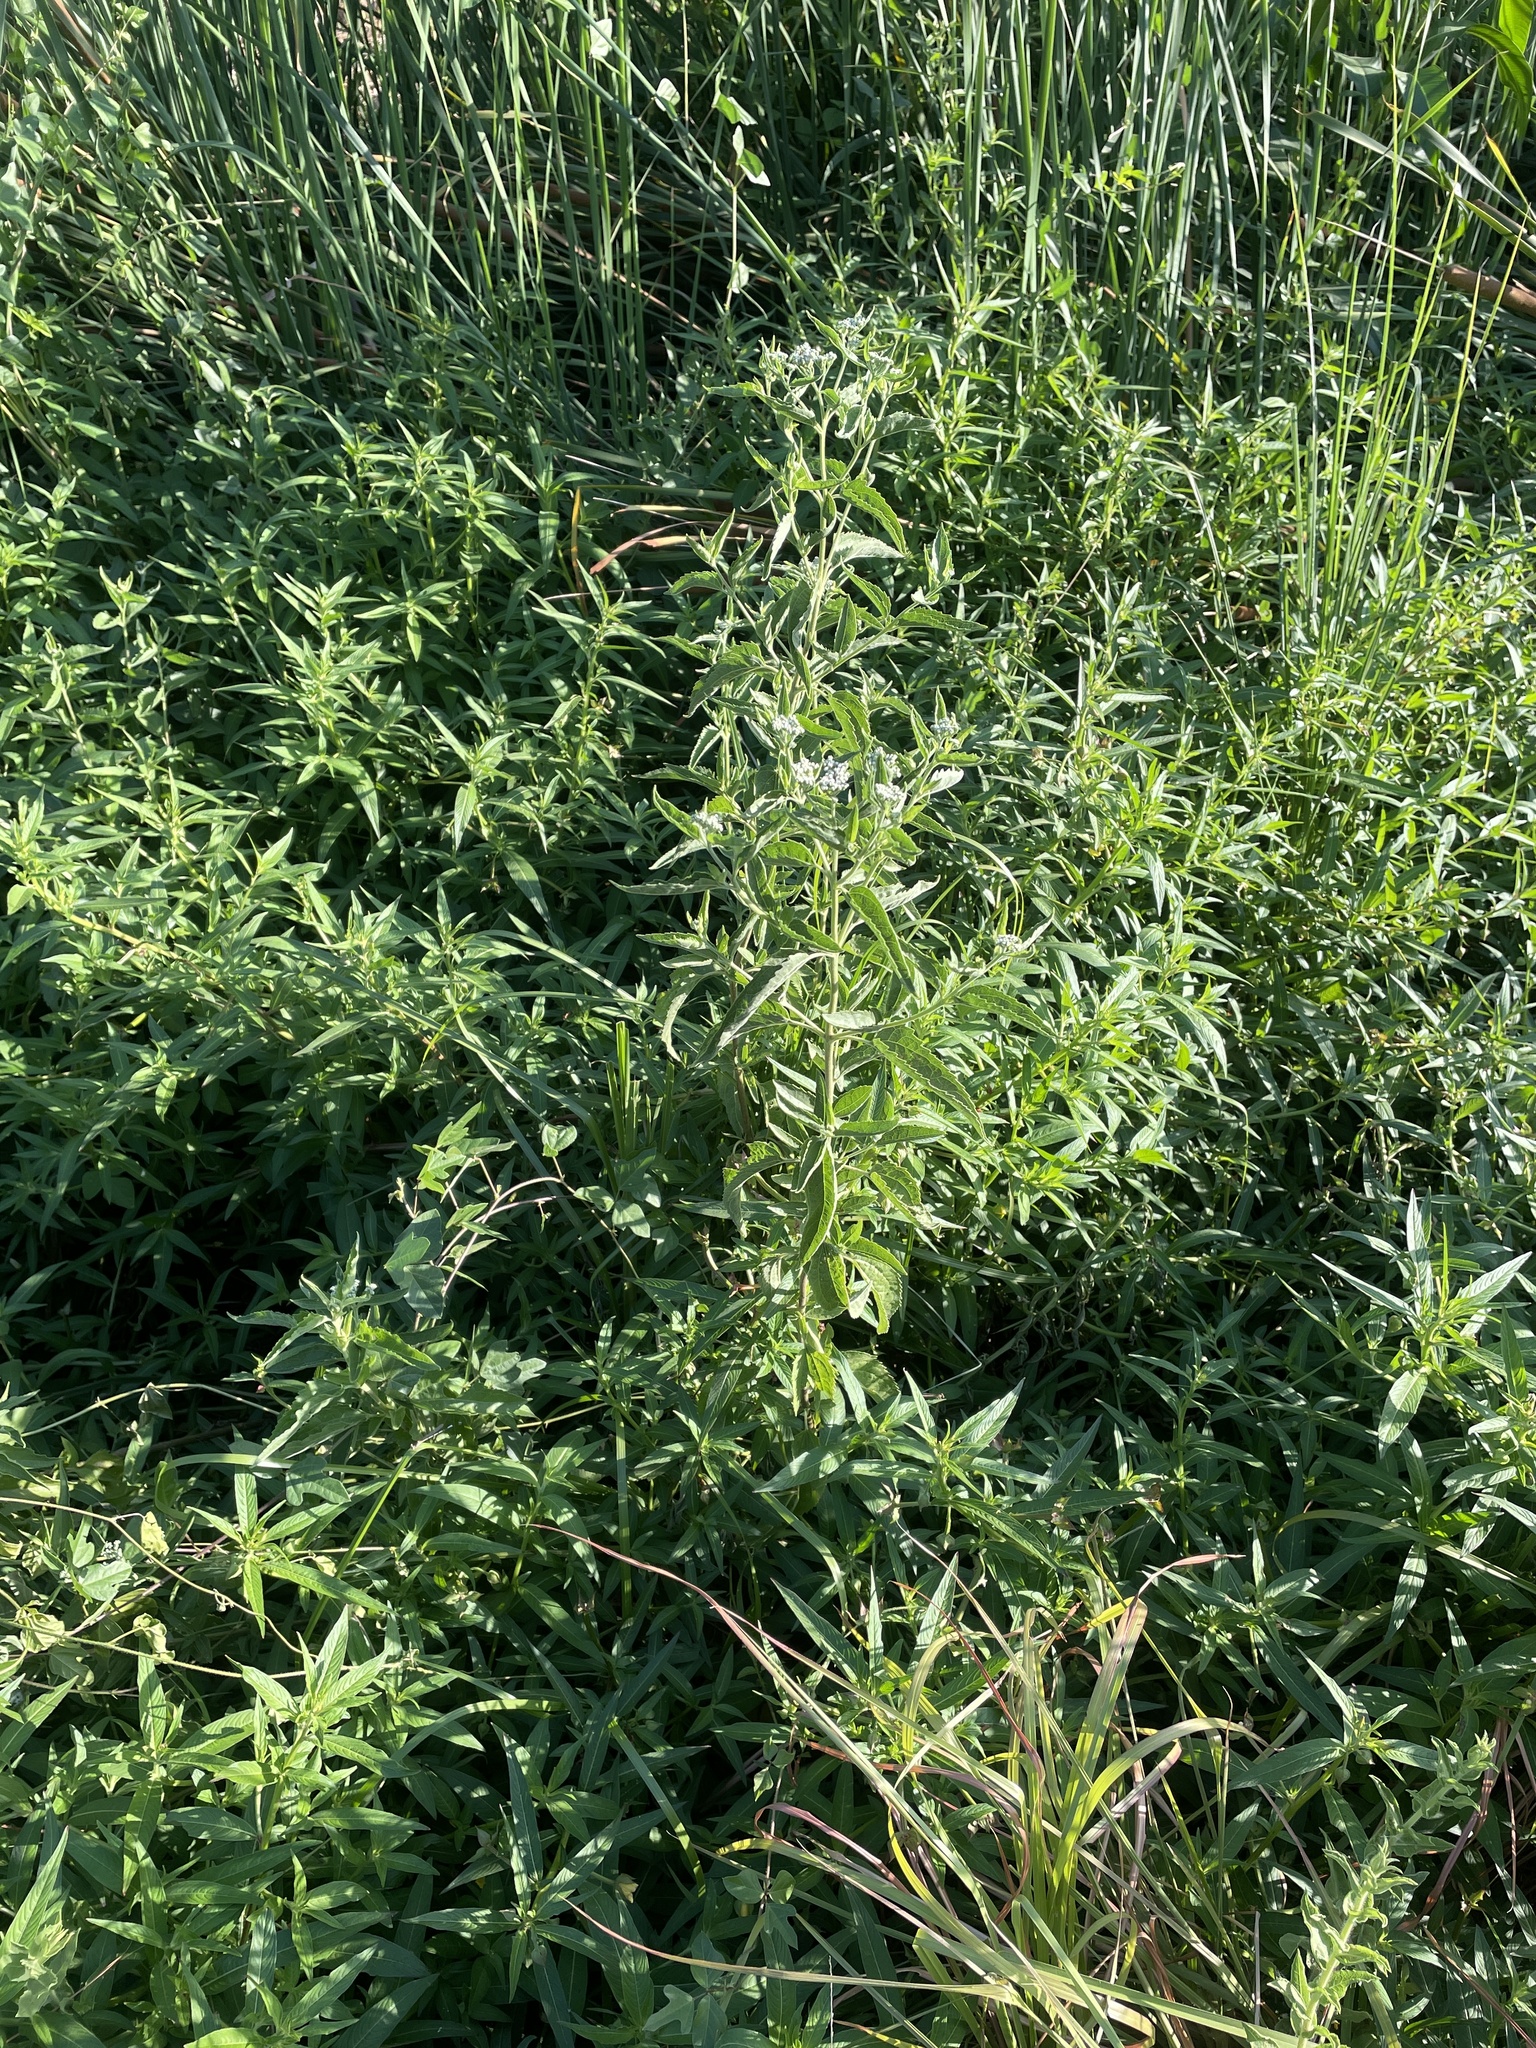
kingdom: Plantae
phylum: Tracheophyta
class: Magnoliopsida
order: Asterales
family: Asteraceae
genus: Eupatorium
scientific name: Eupatorium serotinum
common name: Late boneset
